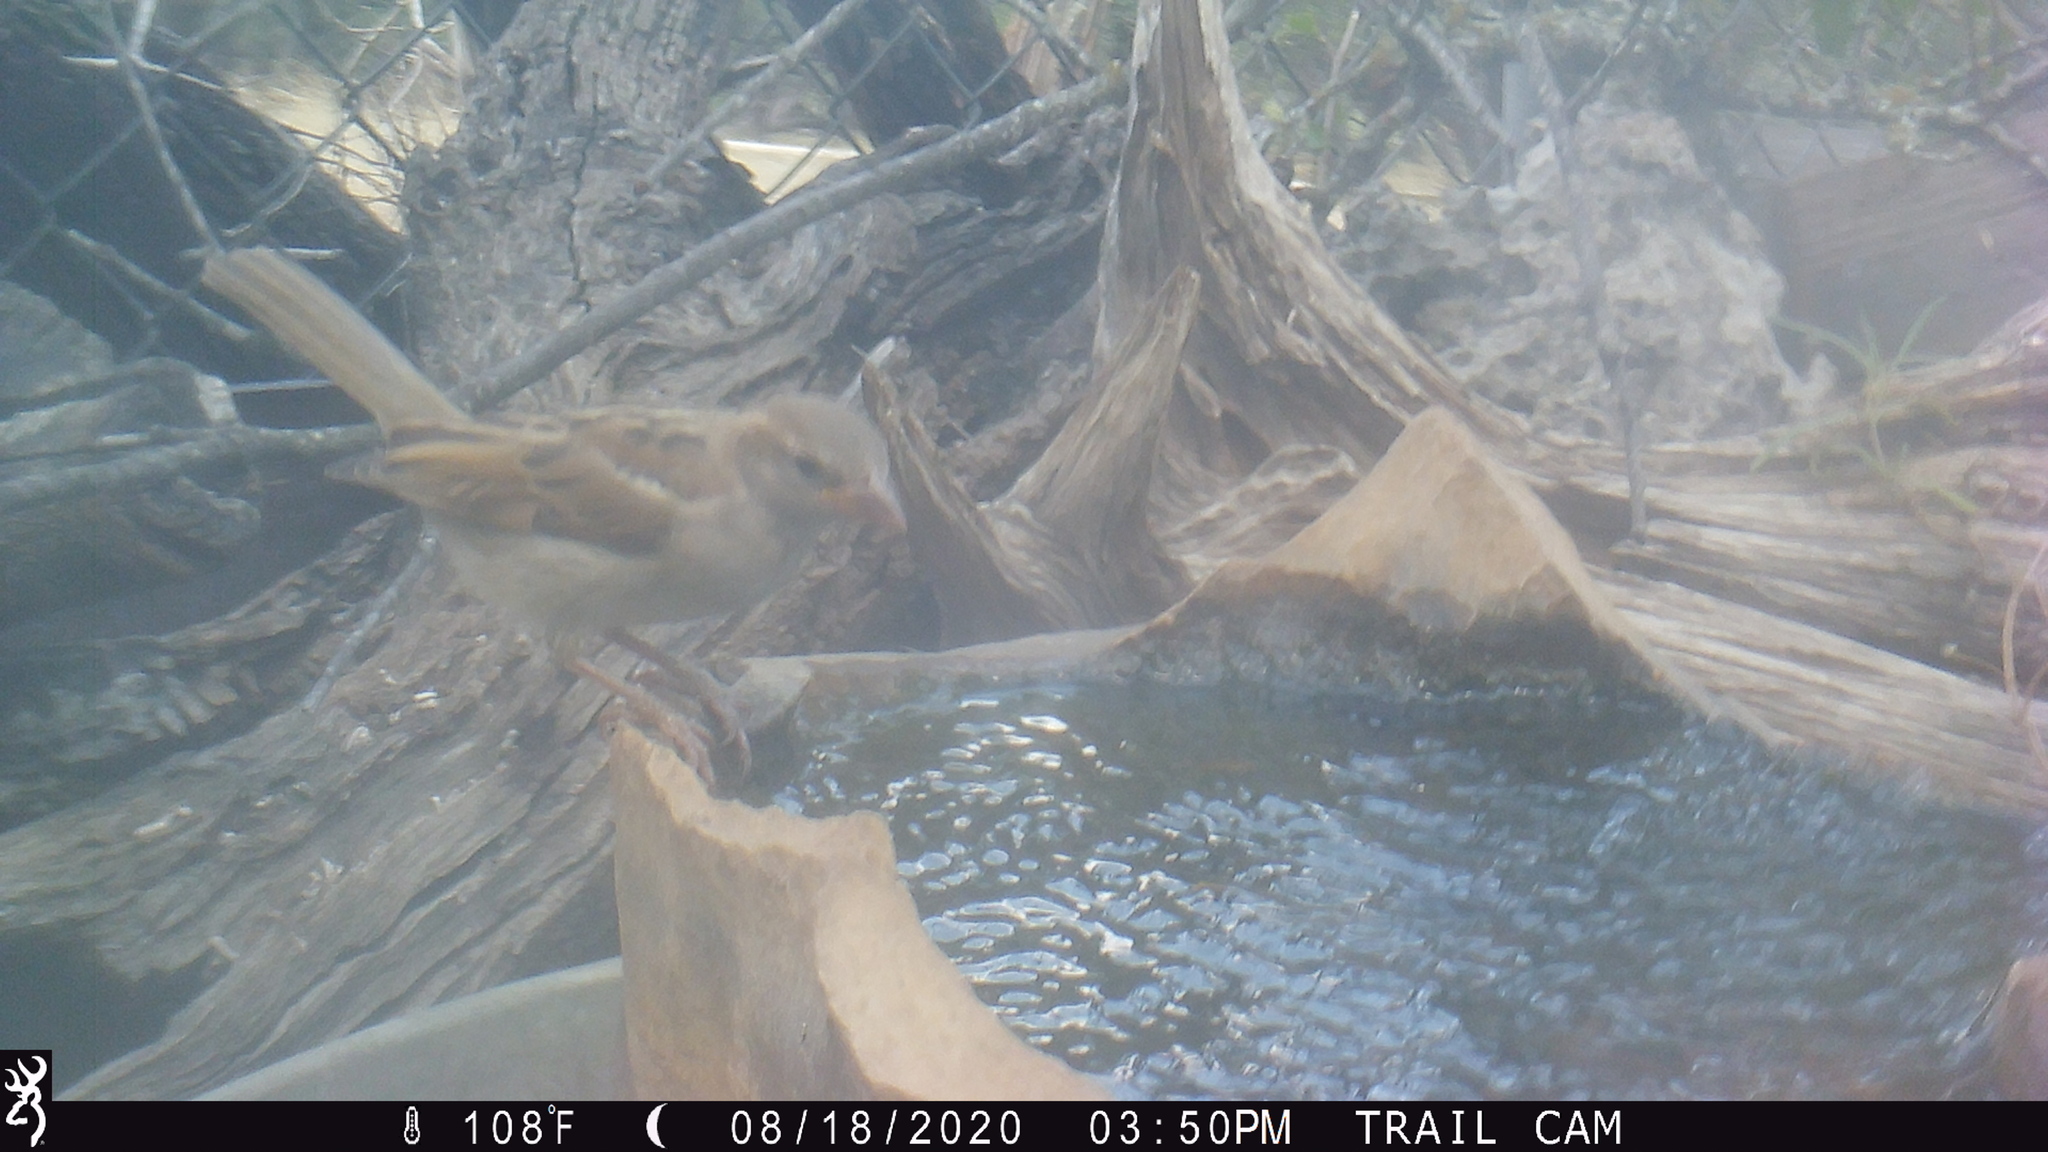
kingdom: Animalia
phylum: Chordata
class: Aves
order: Passeriformes
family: Passeridae
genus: Passer
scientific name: Passer domesticus
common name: House sparrow
